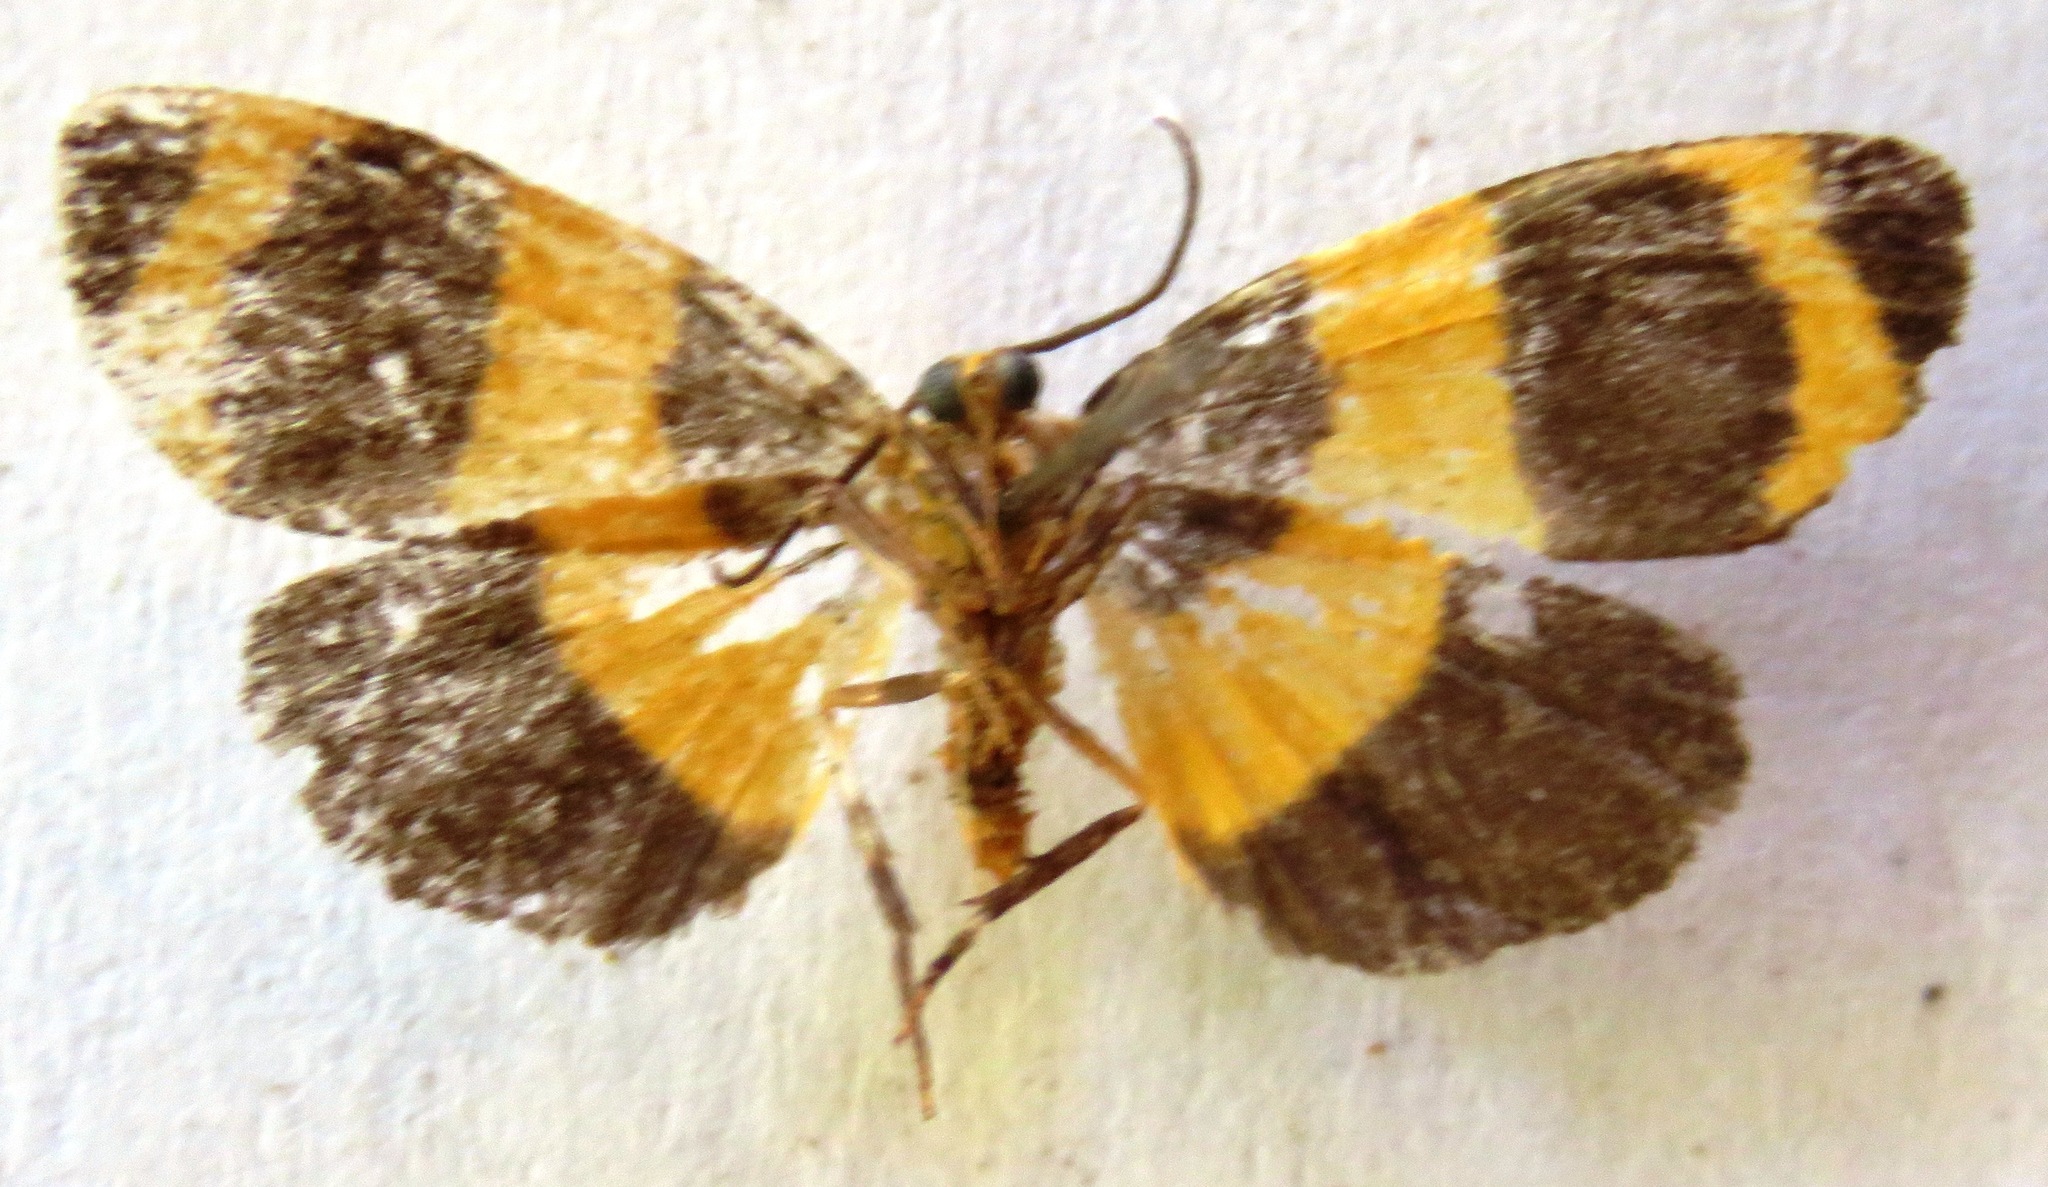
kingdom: Animalia
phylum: Arthropoda
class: Insecta
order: Lepidoptera
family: Erebidae
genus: Eudesmia
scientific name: Eudesmia praxis
